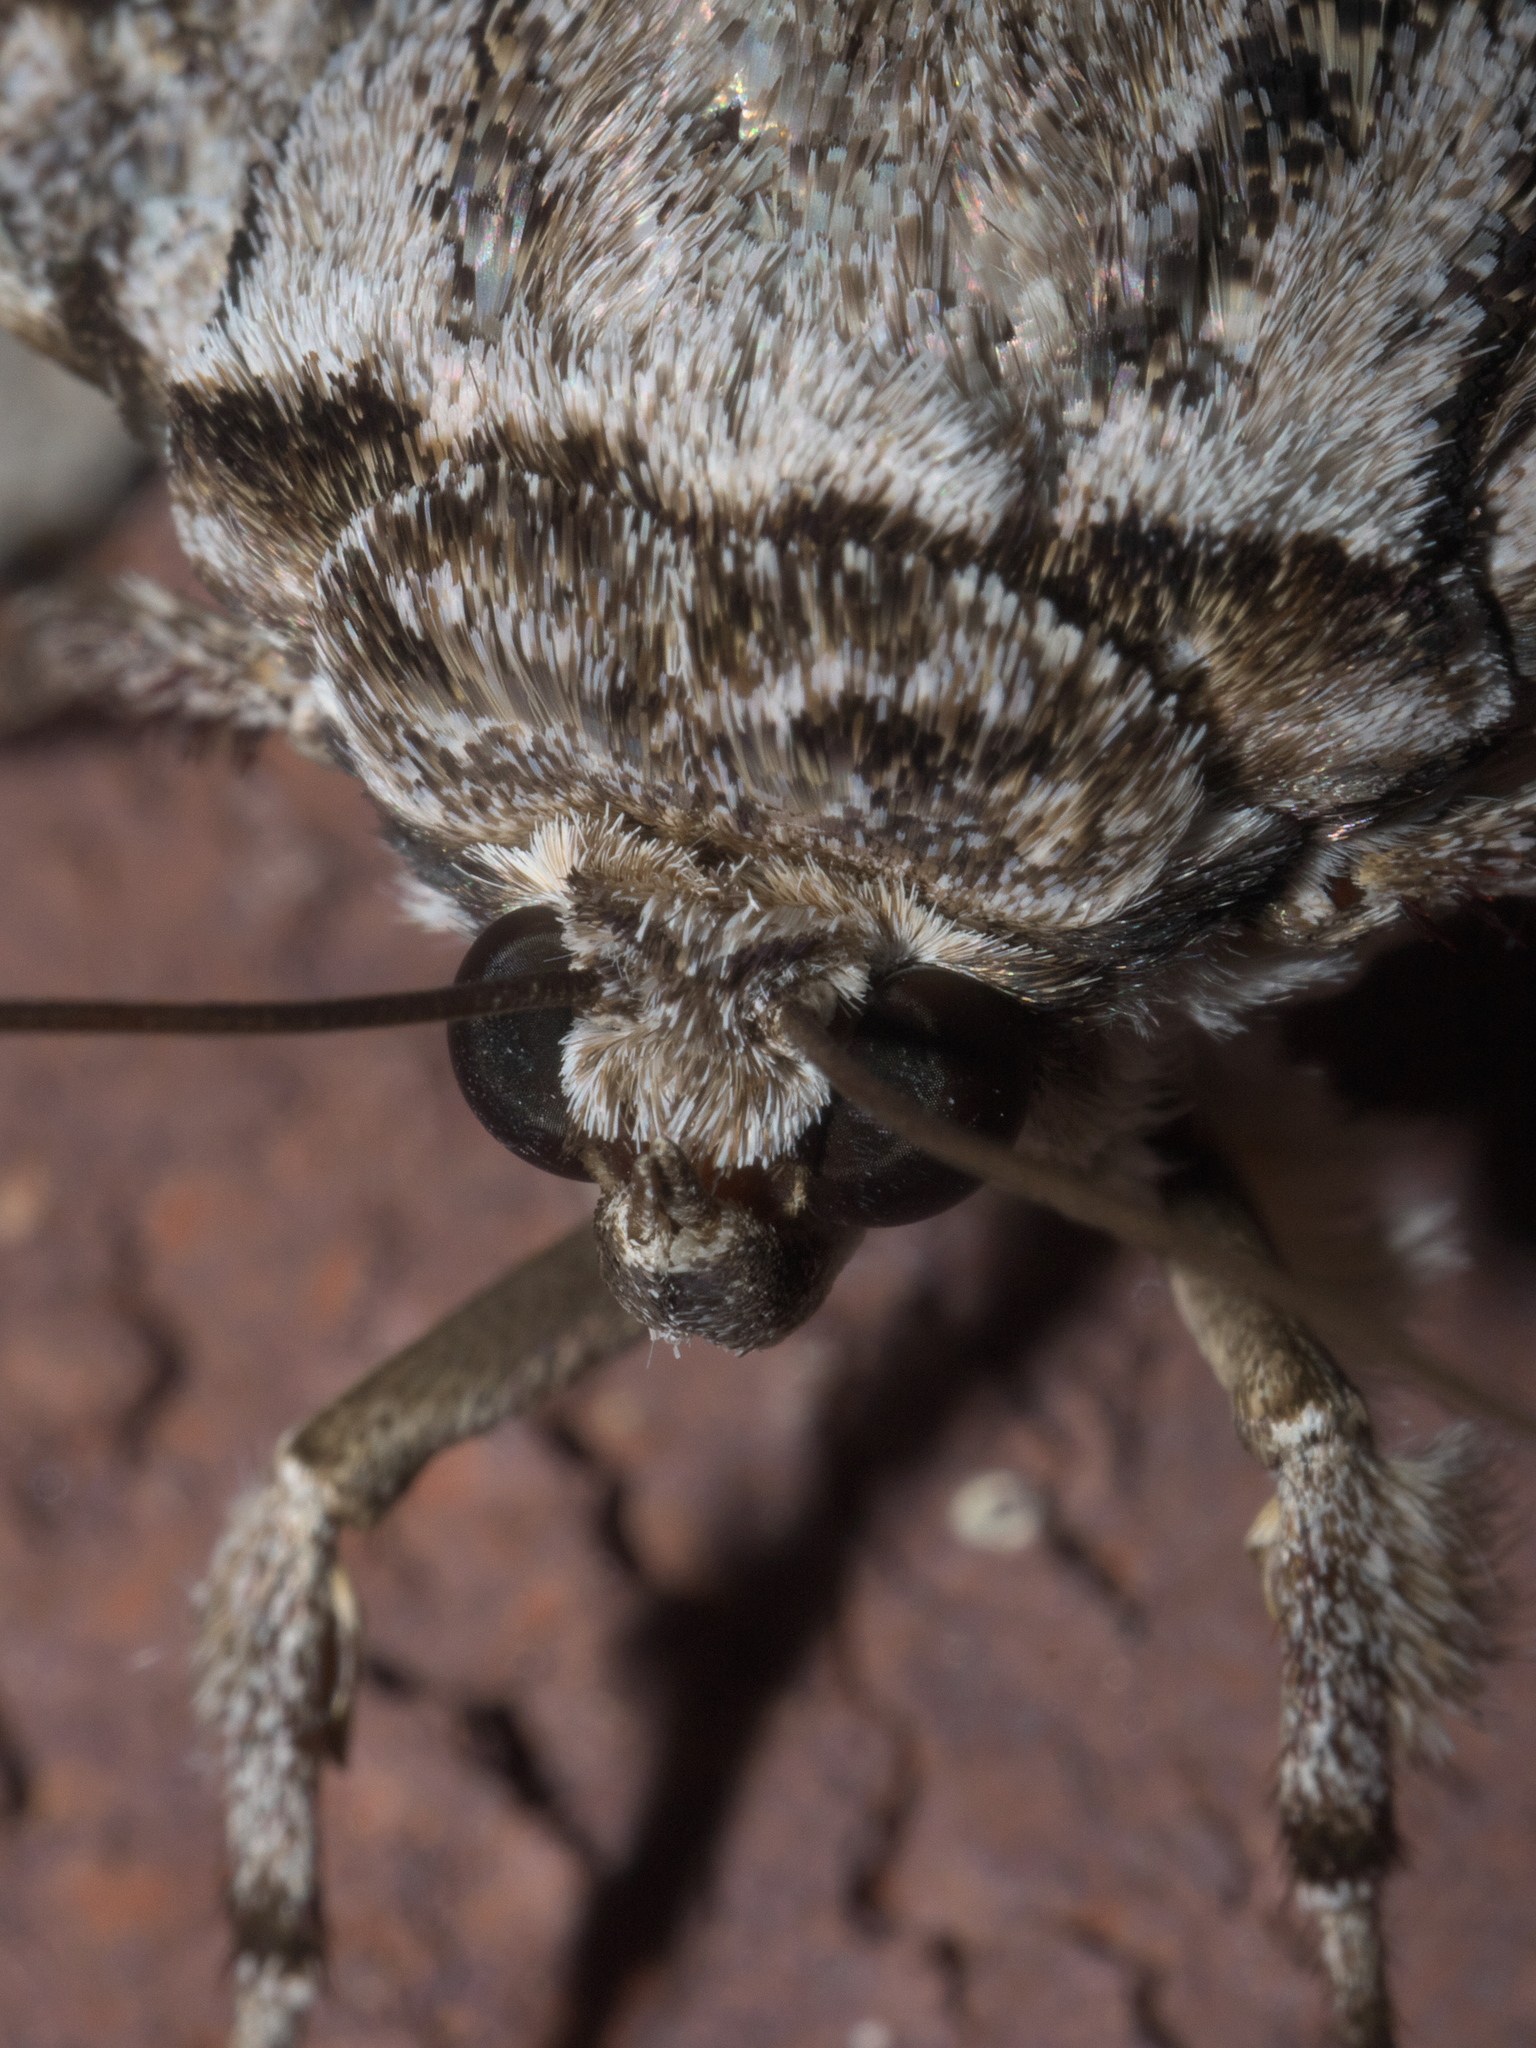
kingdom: Animalia
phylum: Arthropoda
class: Insecta
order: Lepidoptera
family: Erebidae
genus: Catocala
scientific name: Catocala maestosa
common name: Sad underwing
